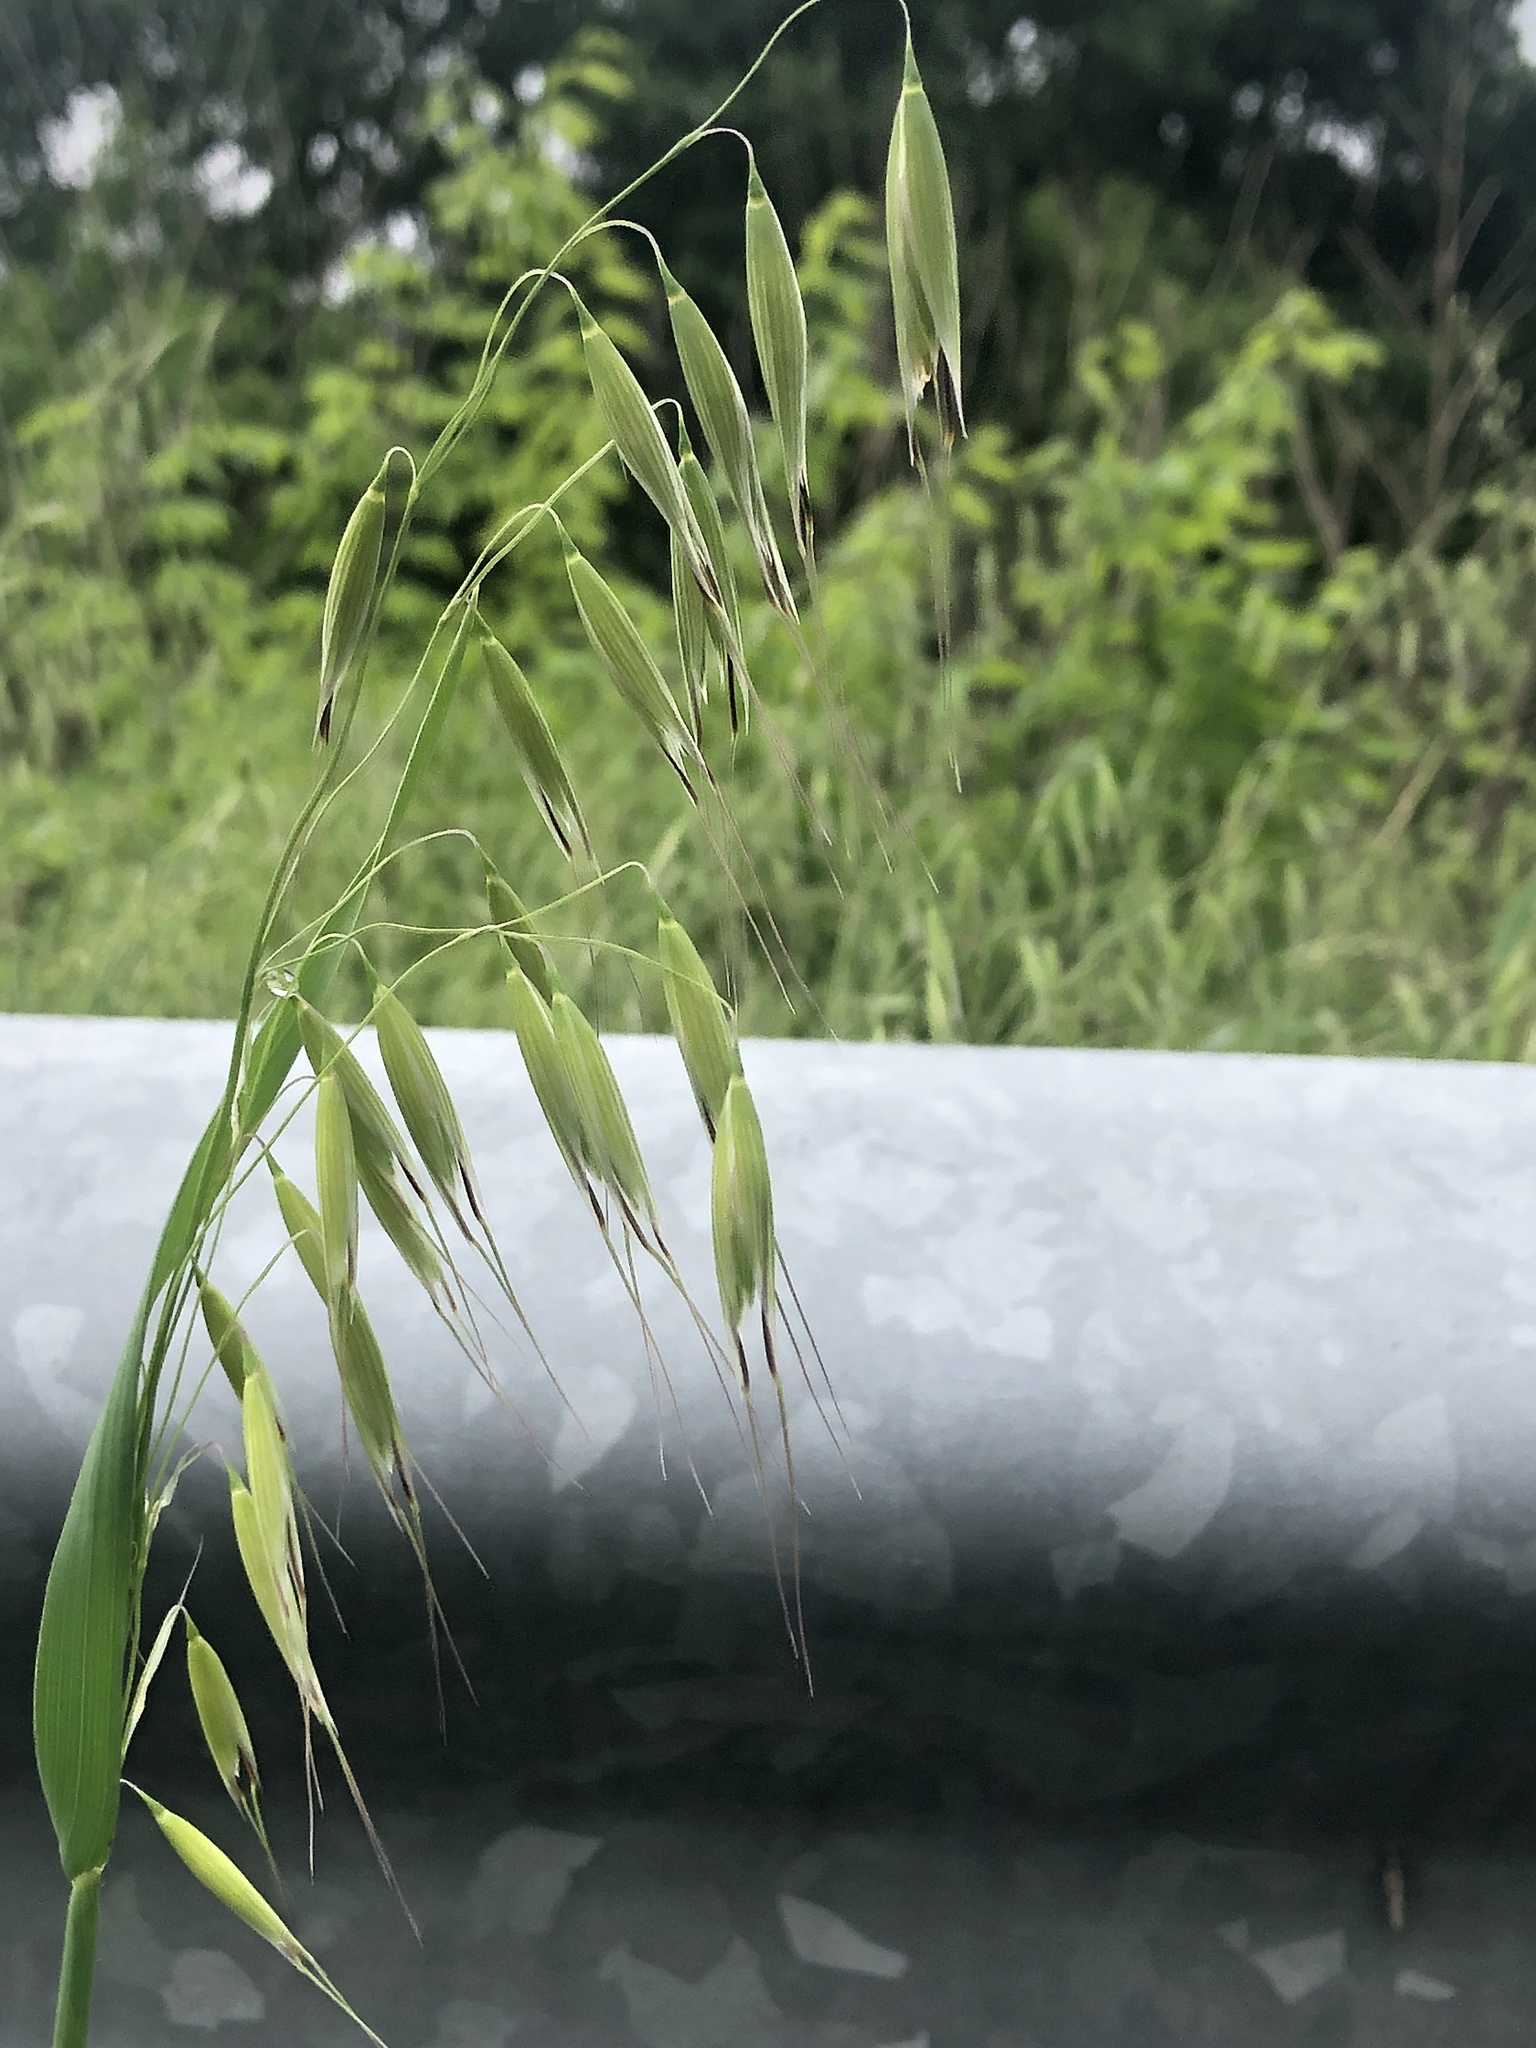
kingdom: Plantae
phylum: Tracheophyta
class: Liliopsida
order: Poales
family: Poaceae
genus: Avena
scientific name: Avena fatua
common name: Wild oat
